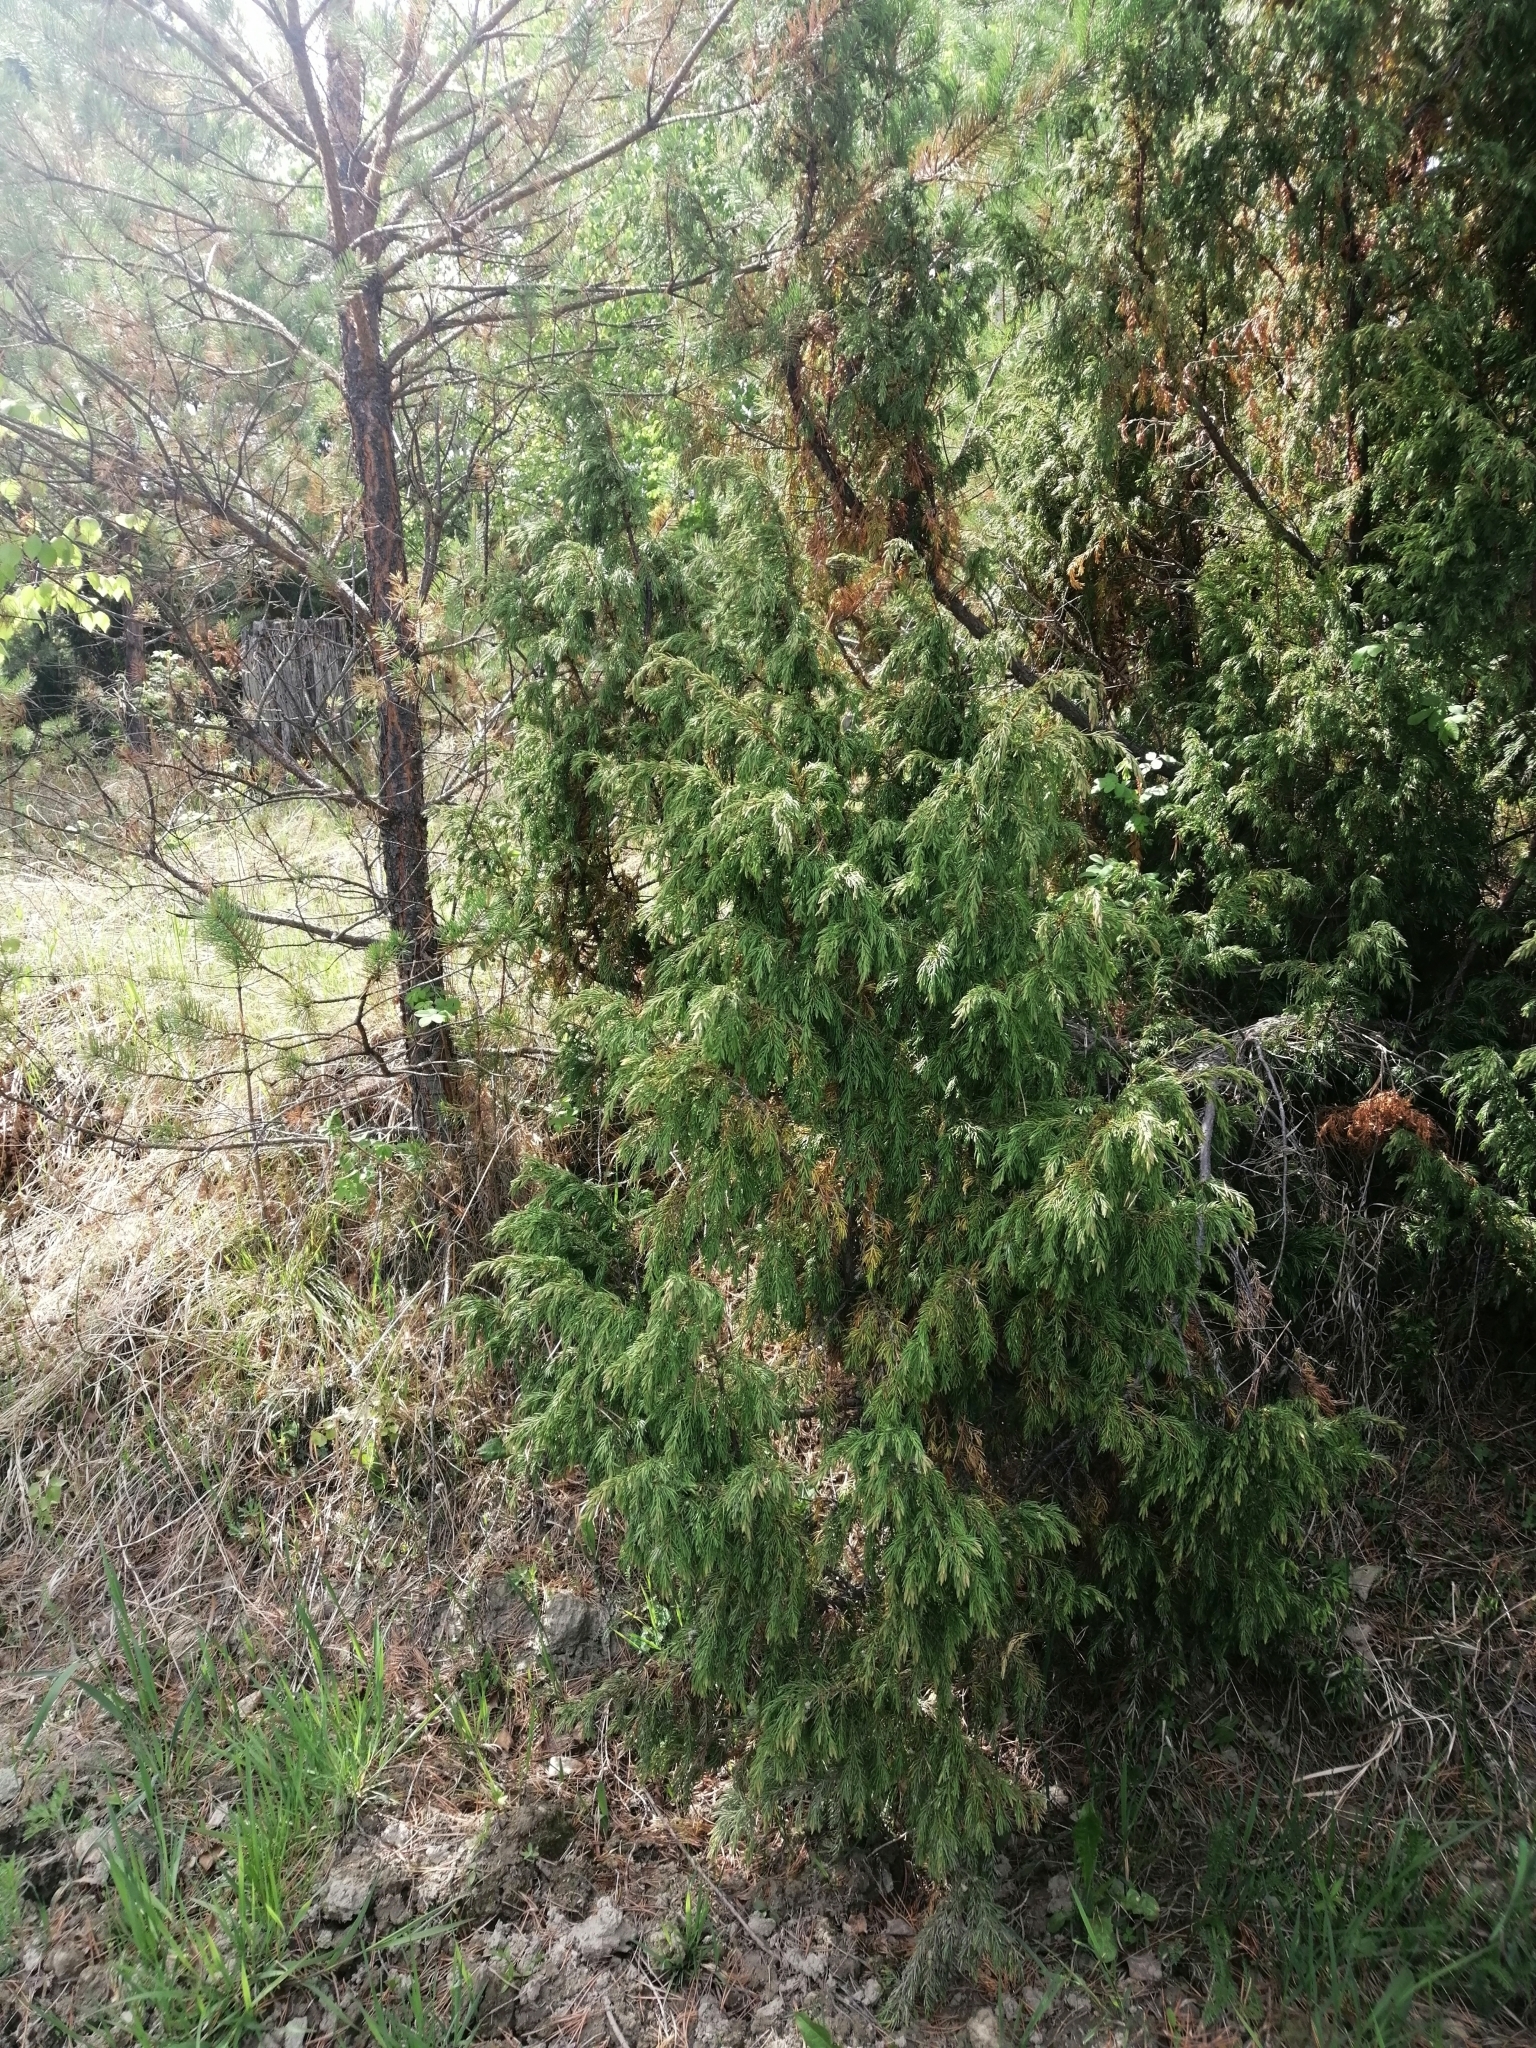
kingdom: Plantae
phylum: Tracheophyta
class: Pinopsida
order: Pinales
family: Cupressaceae
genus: Juniperus
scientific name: Juniperus communis
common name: Common juniper
